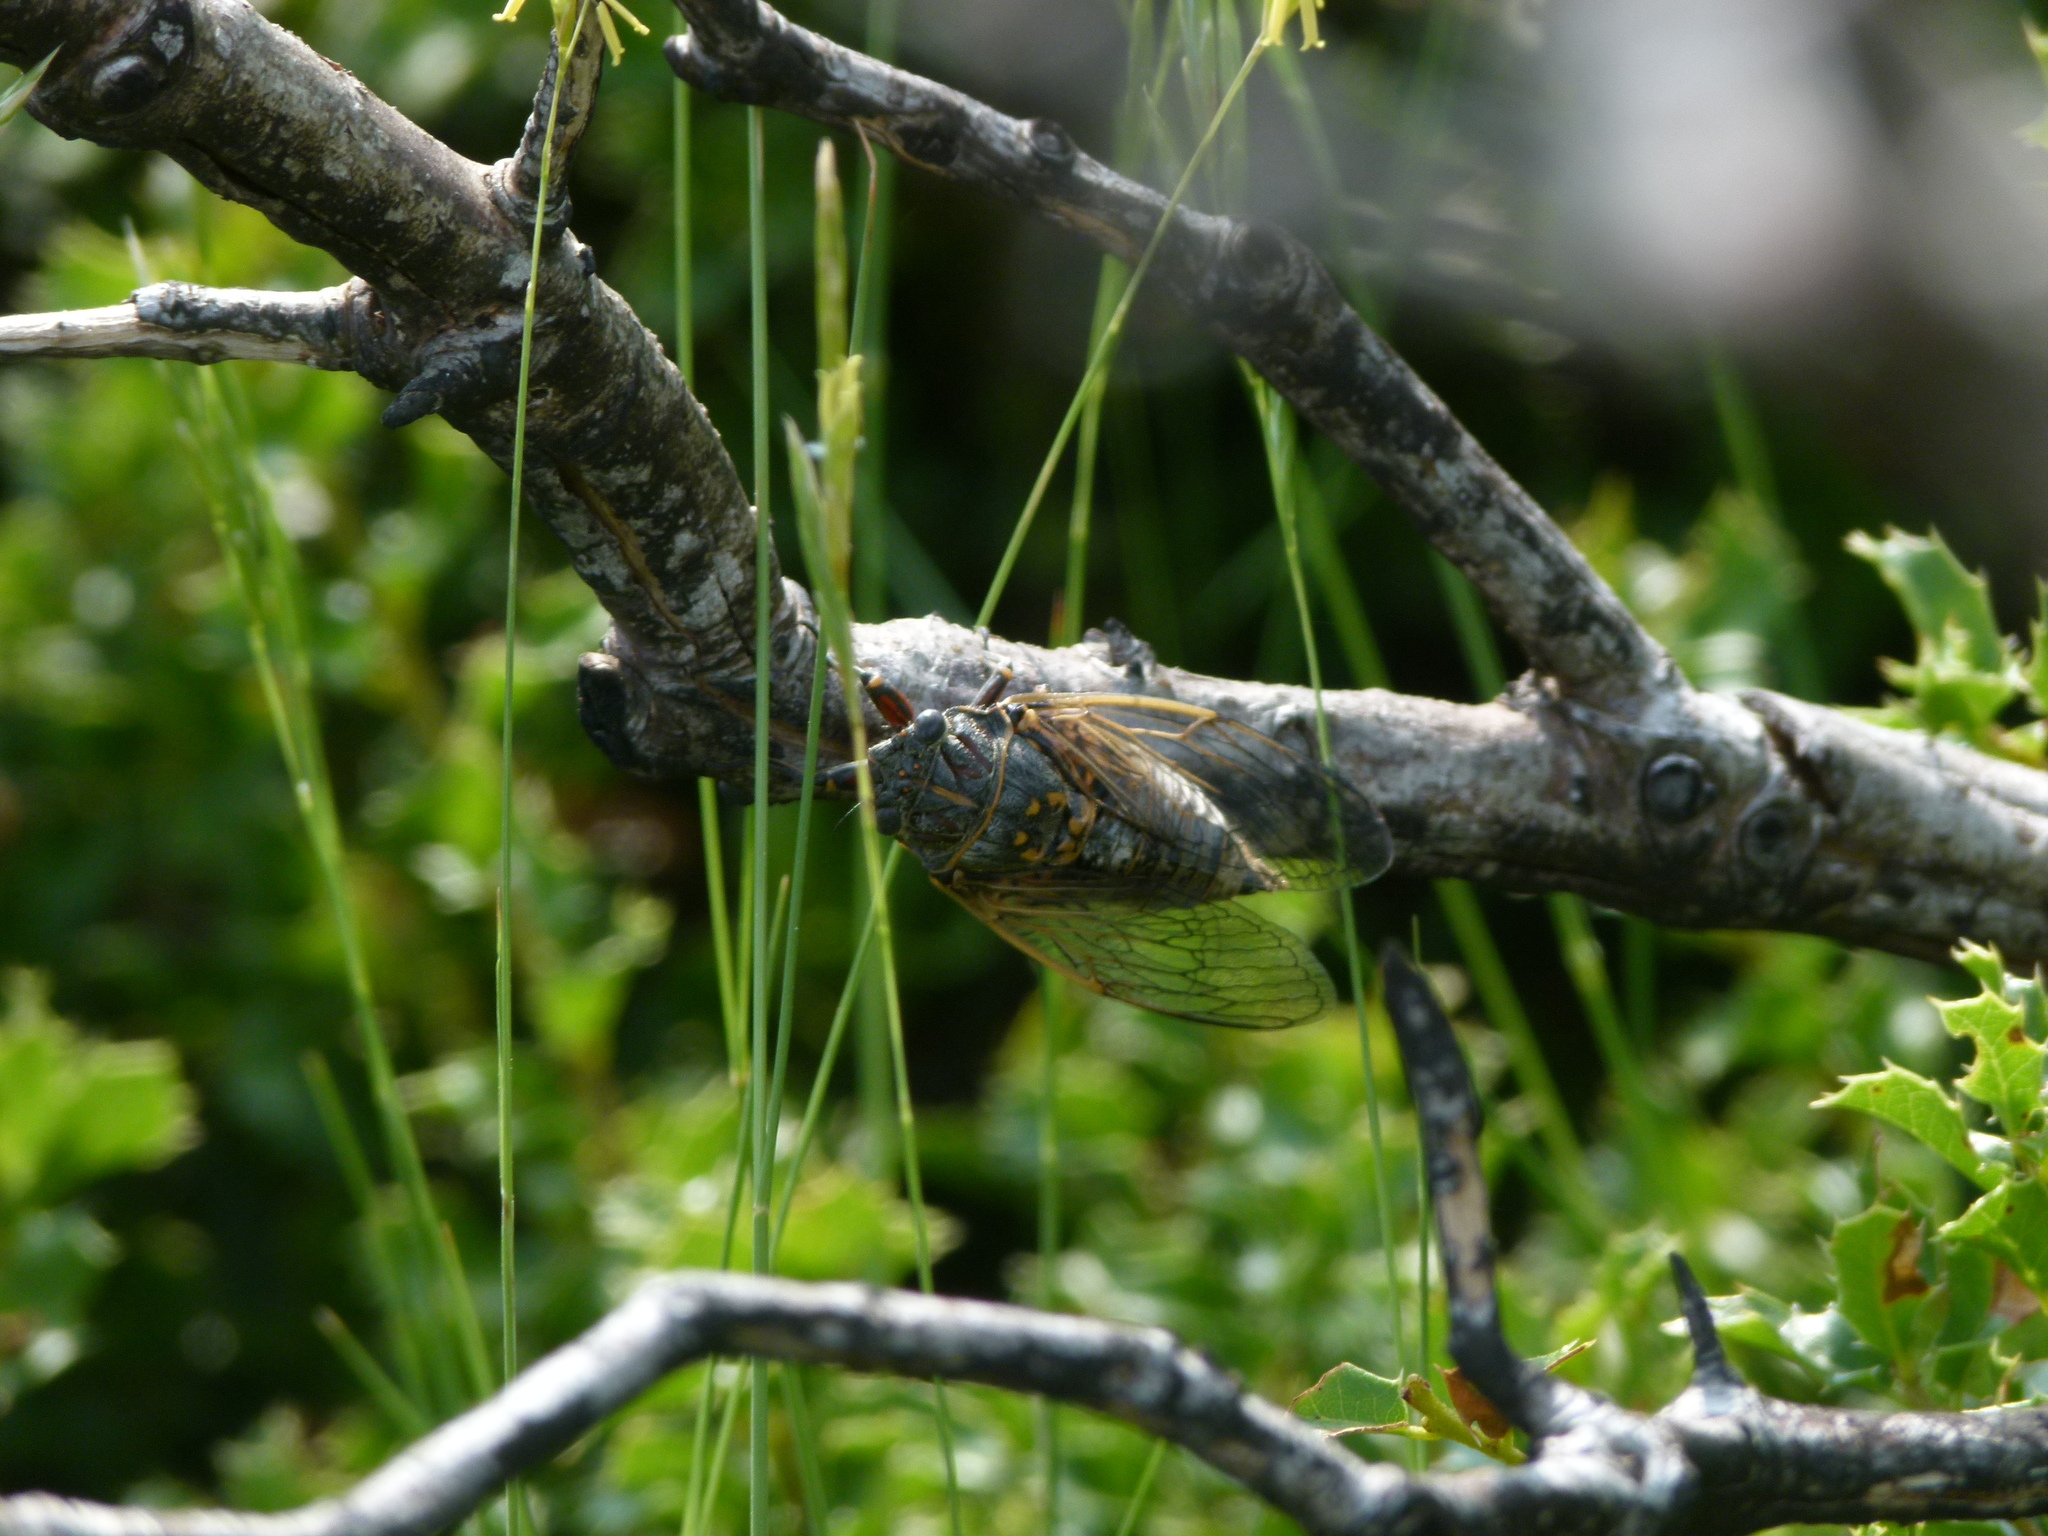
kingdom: Animalia
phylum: Arthropoda
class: Insecta
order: Hemiptera
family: Cicadidae
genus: Tibicina
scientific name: Tibicina garricola
